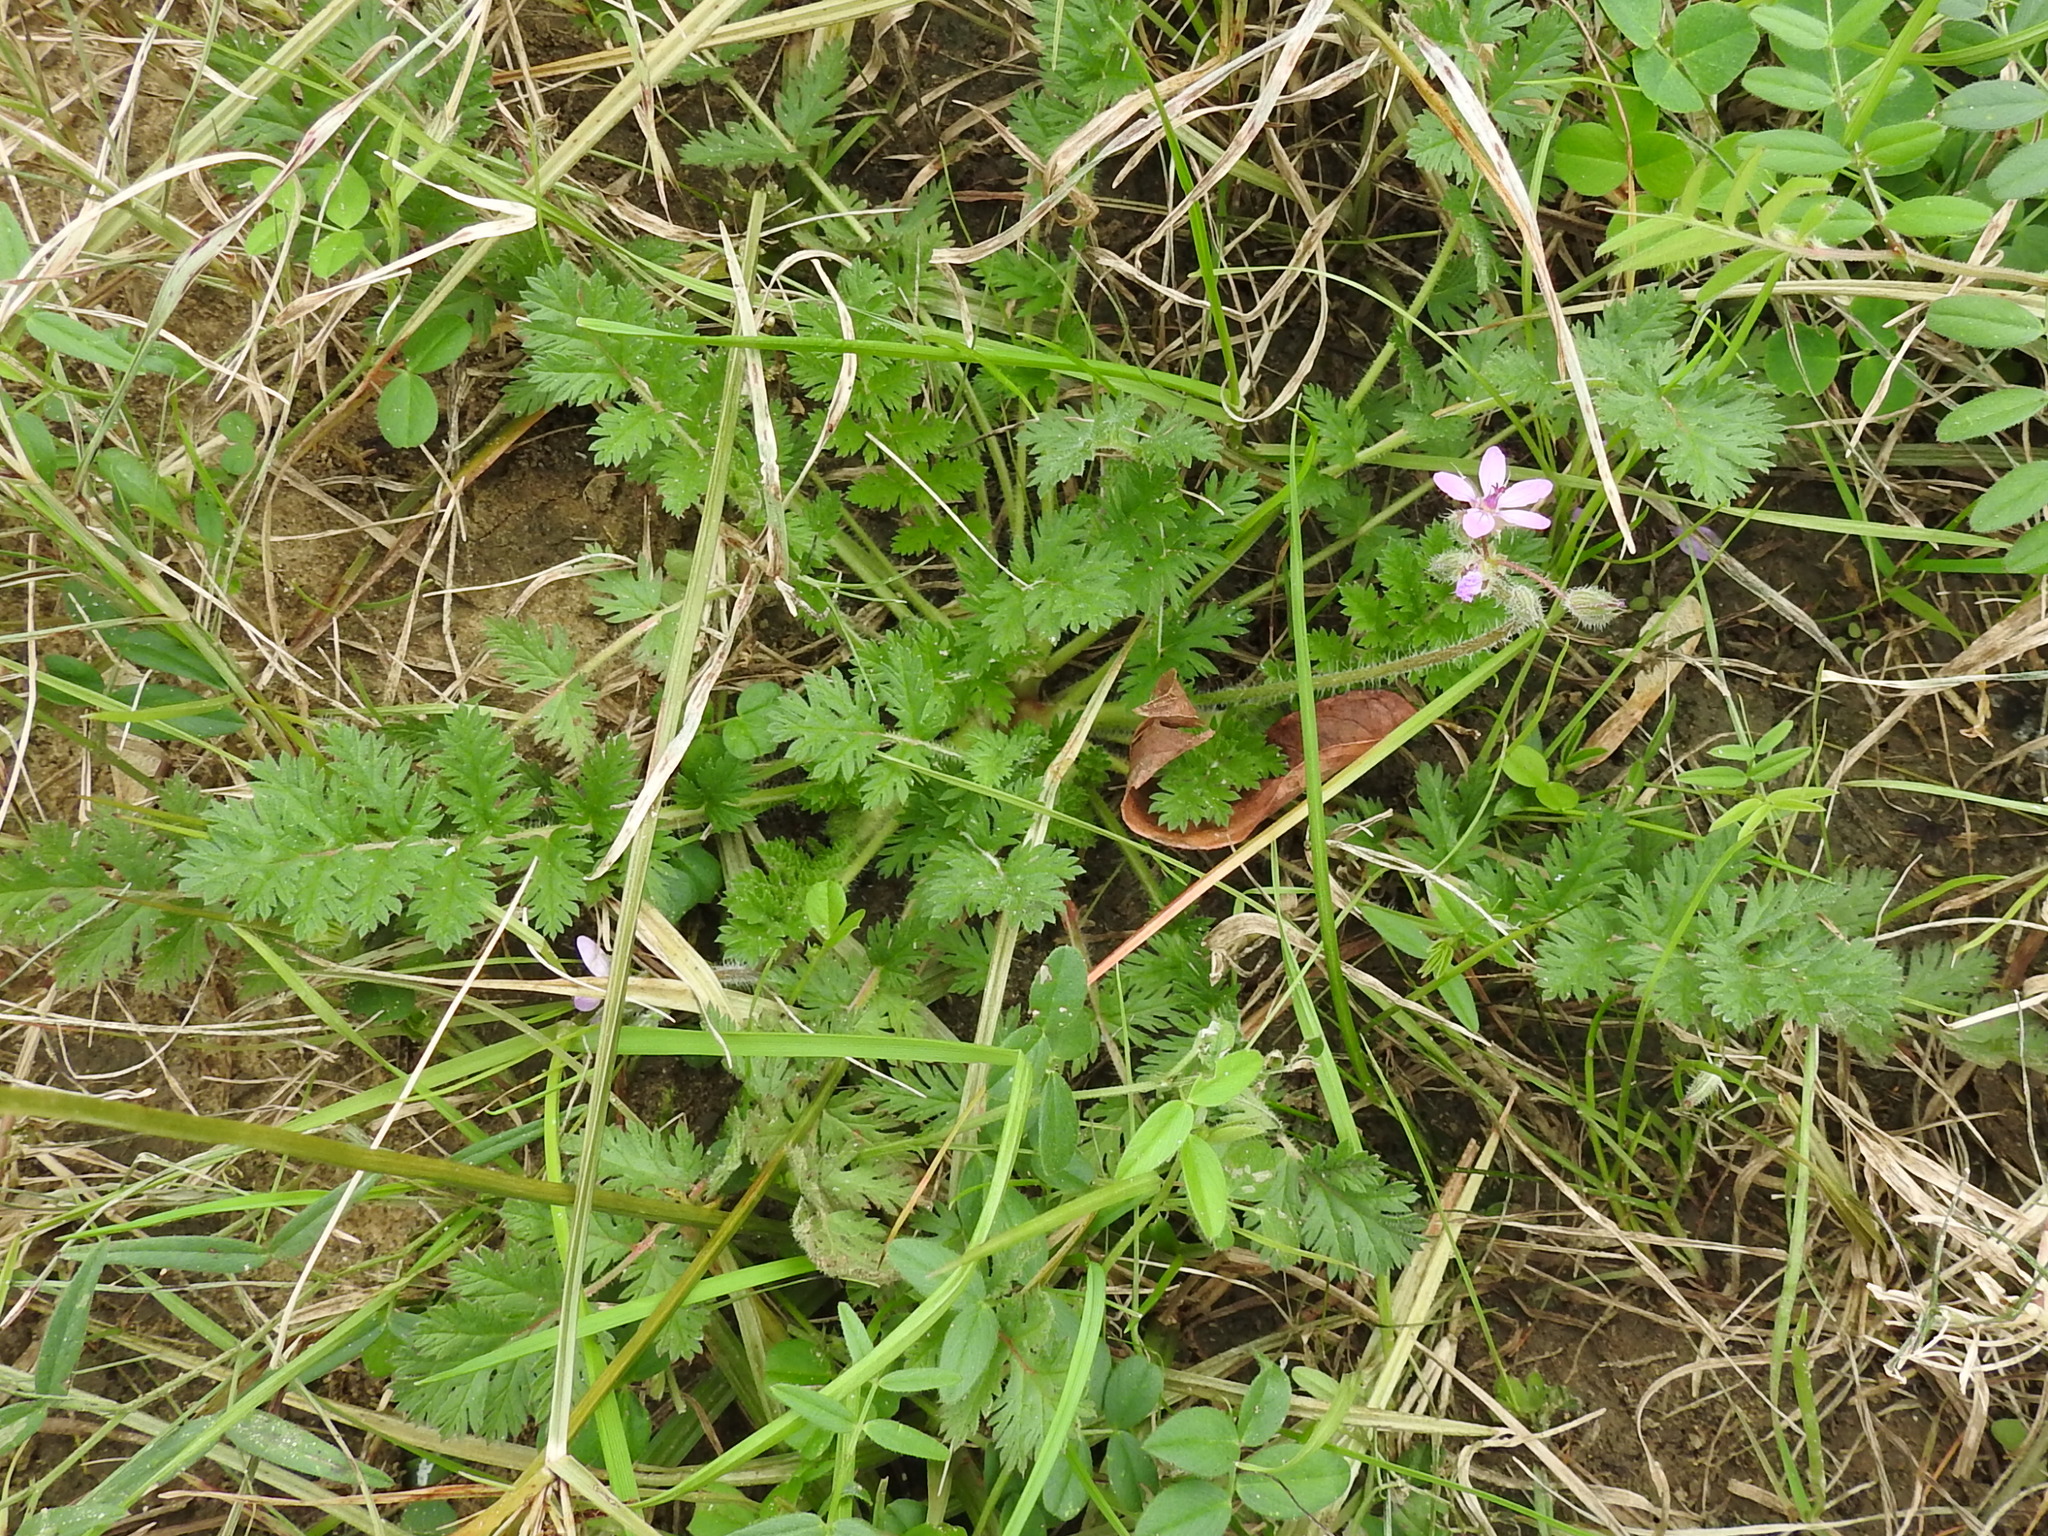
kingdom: Plantae
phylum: Tracheophyta
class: Magnoliopsida
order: Geraniales
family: Geraniaceae
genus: Erodium
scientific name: Erodium cicutarium
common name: Common stork's-bill
